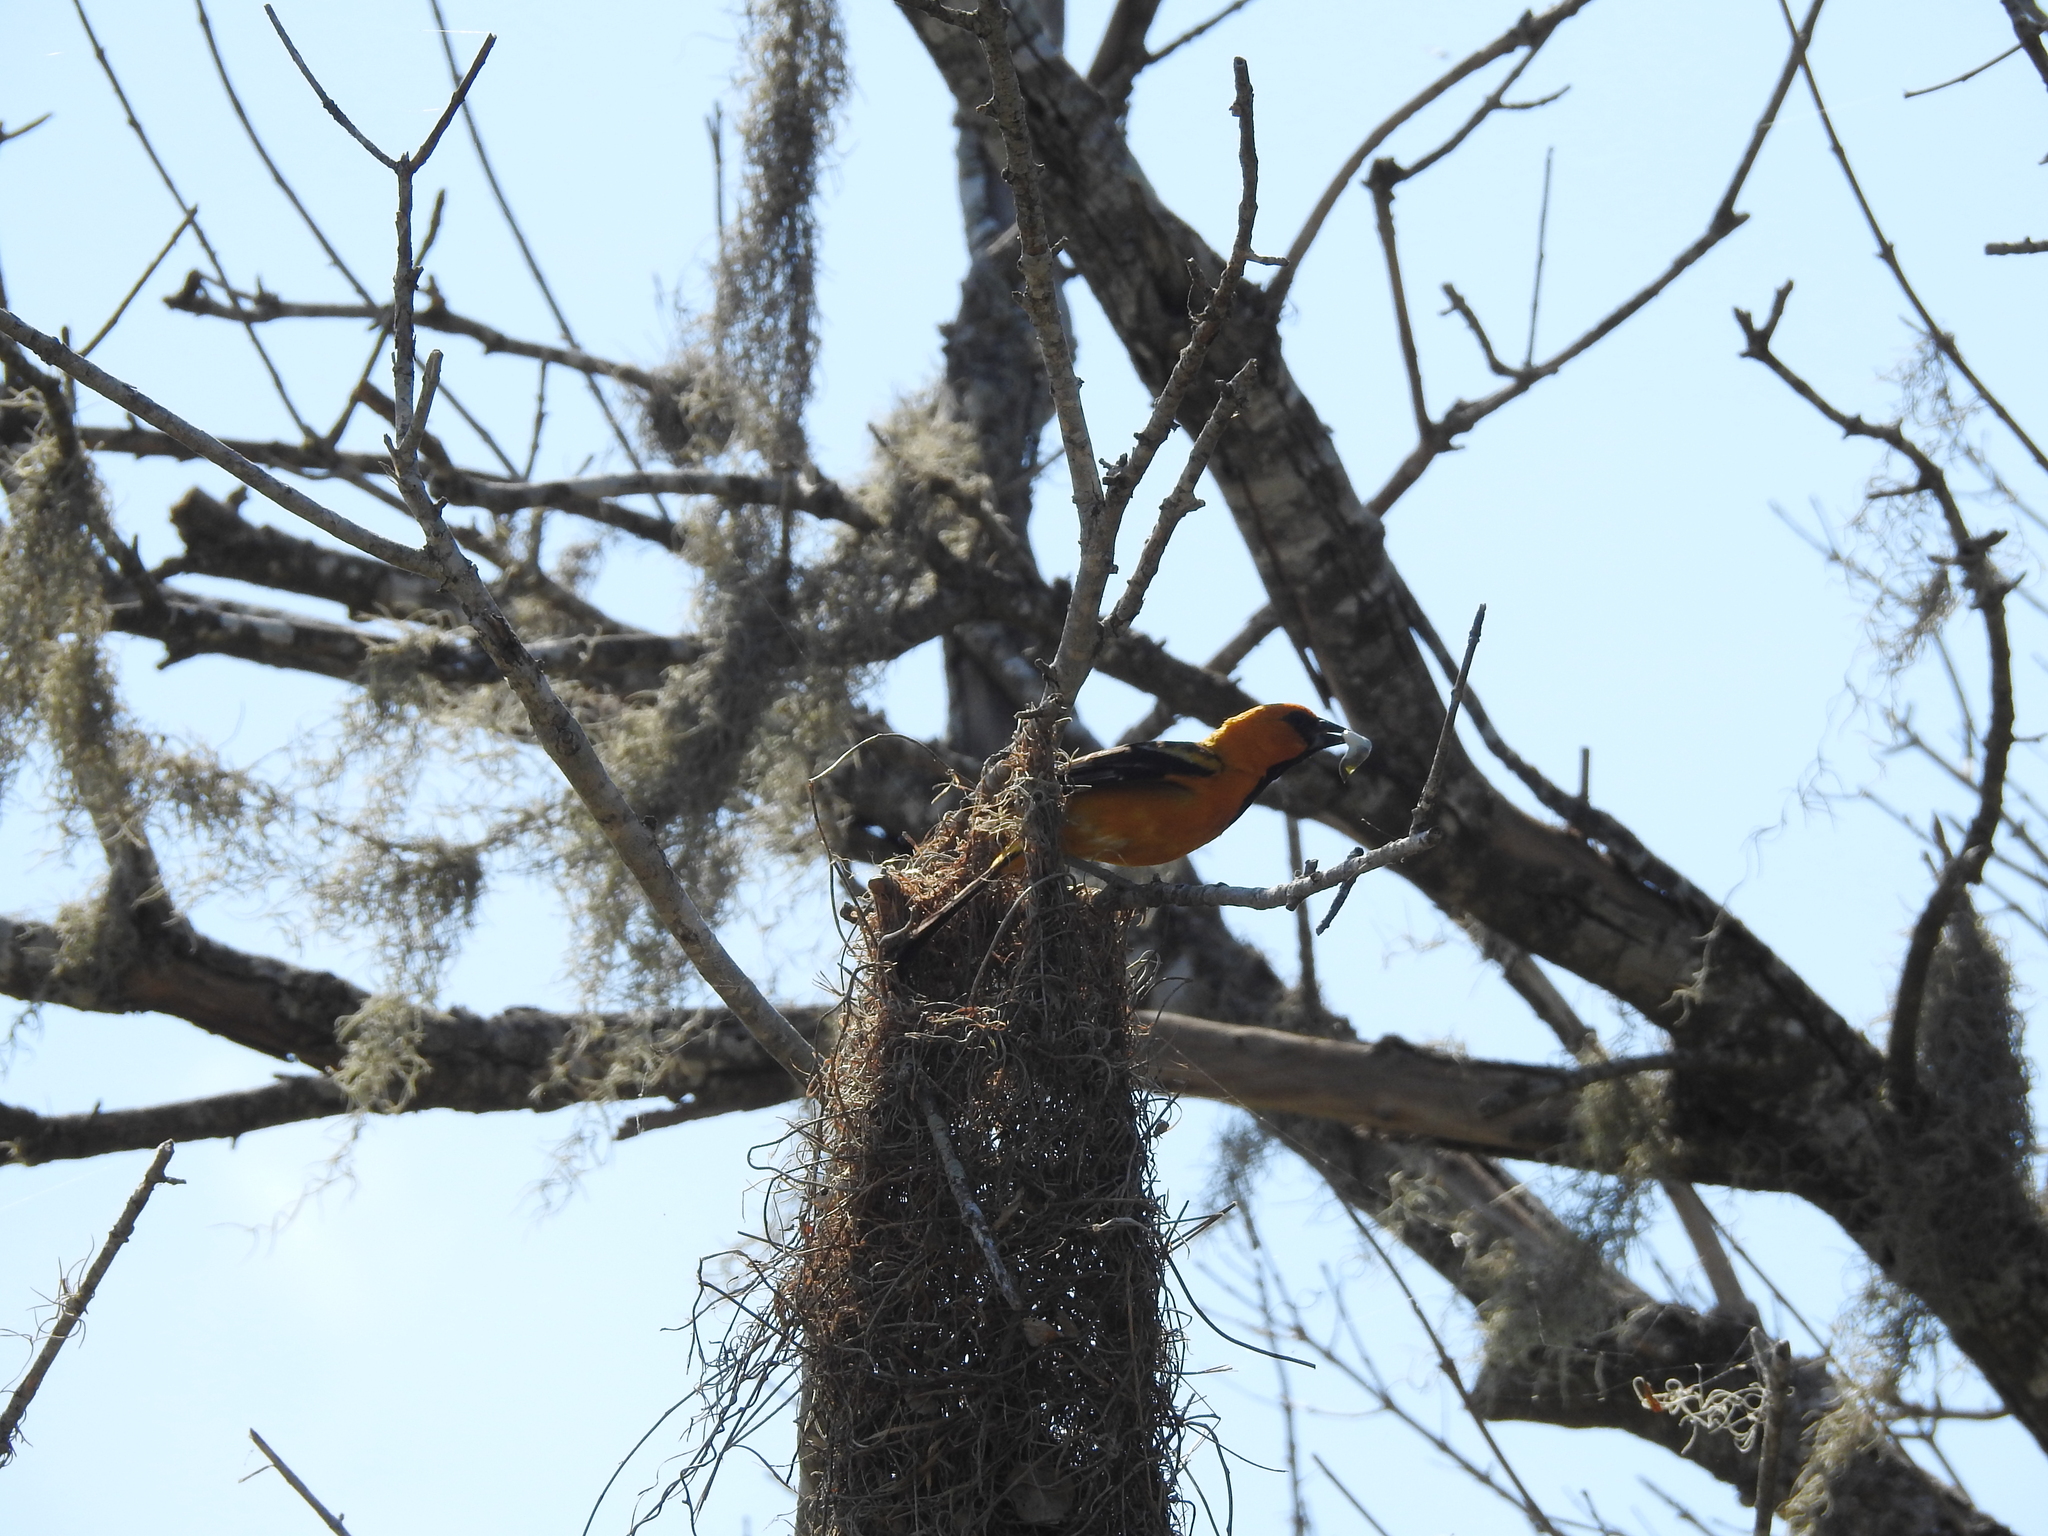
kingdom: Animalia
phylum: Chordata
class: Aves
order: Passeriformes
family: Icteridae
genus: Icterus
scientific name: Icterus gularis
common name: Altamira oriole
